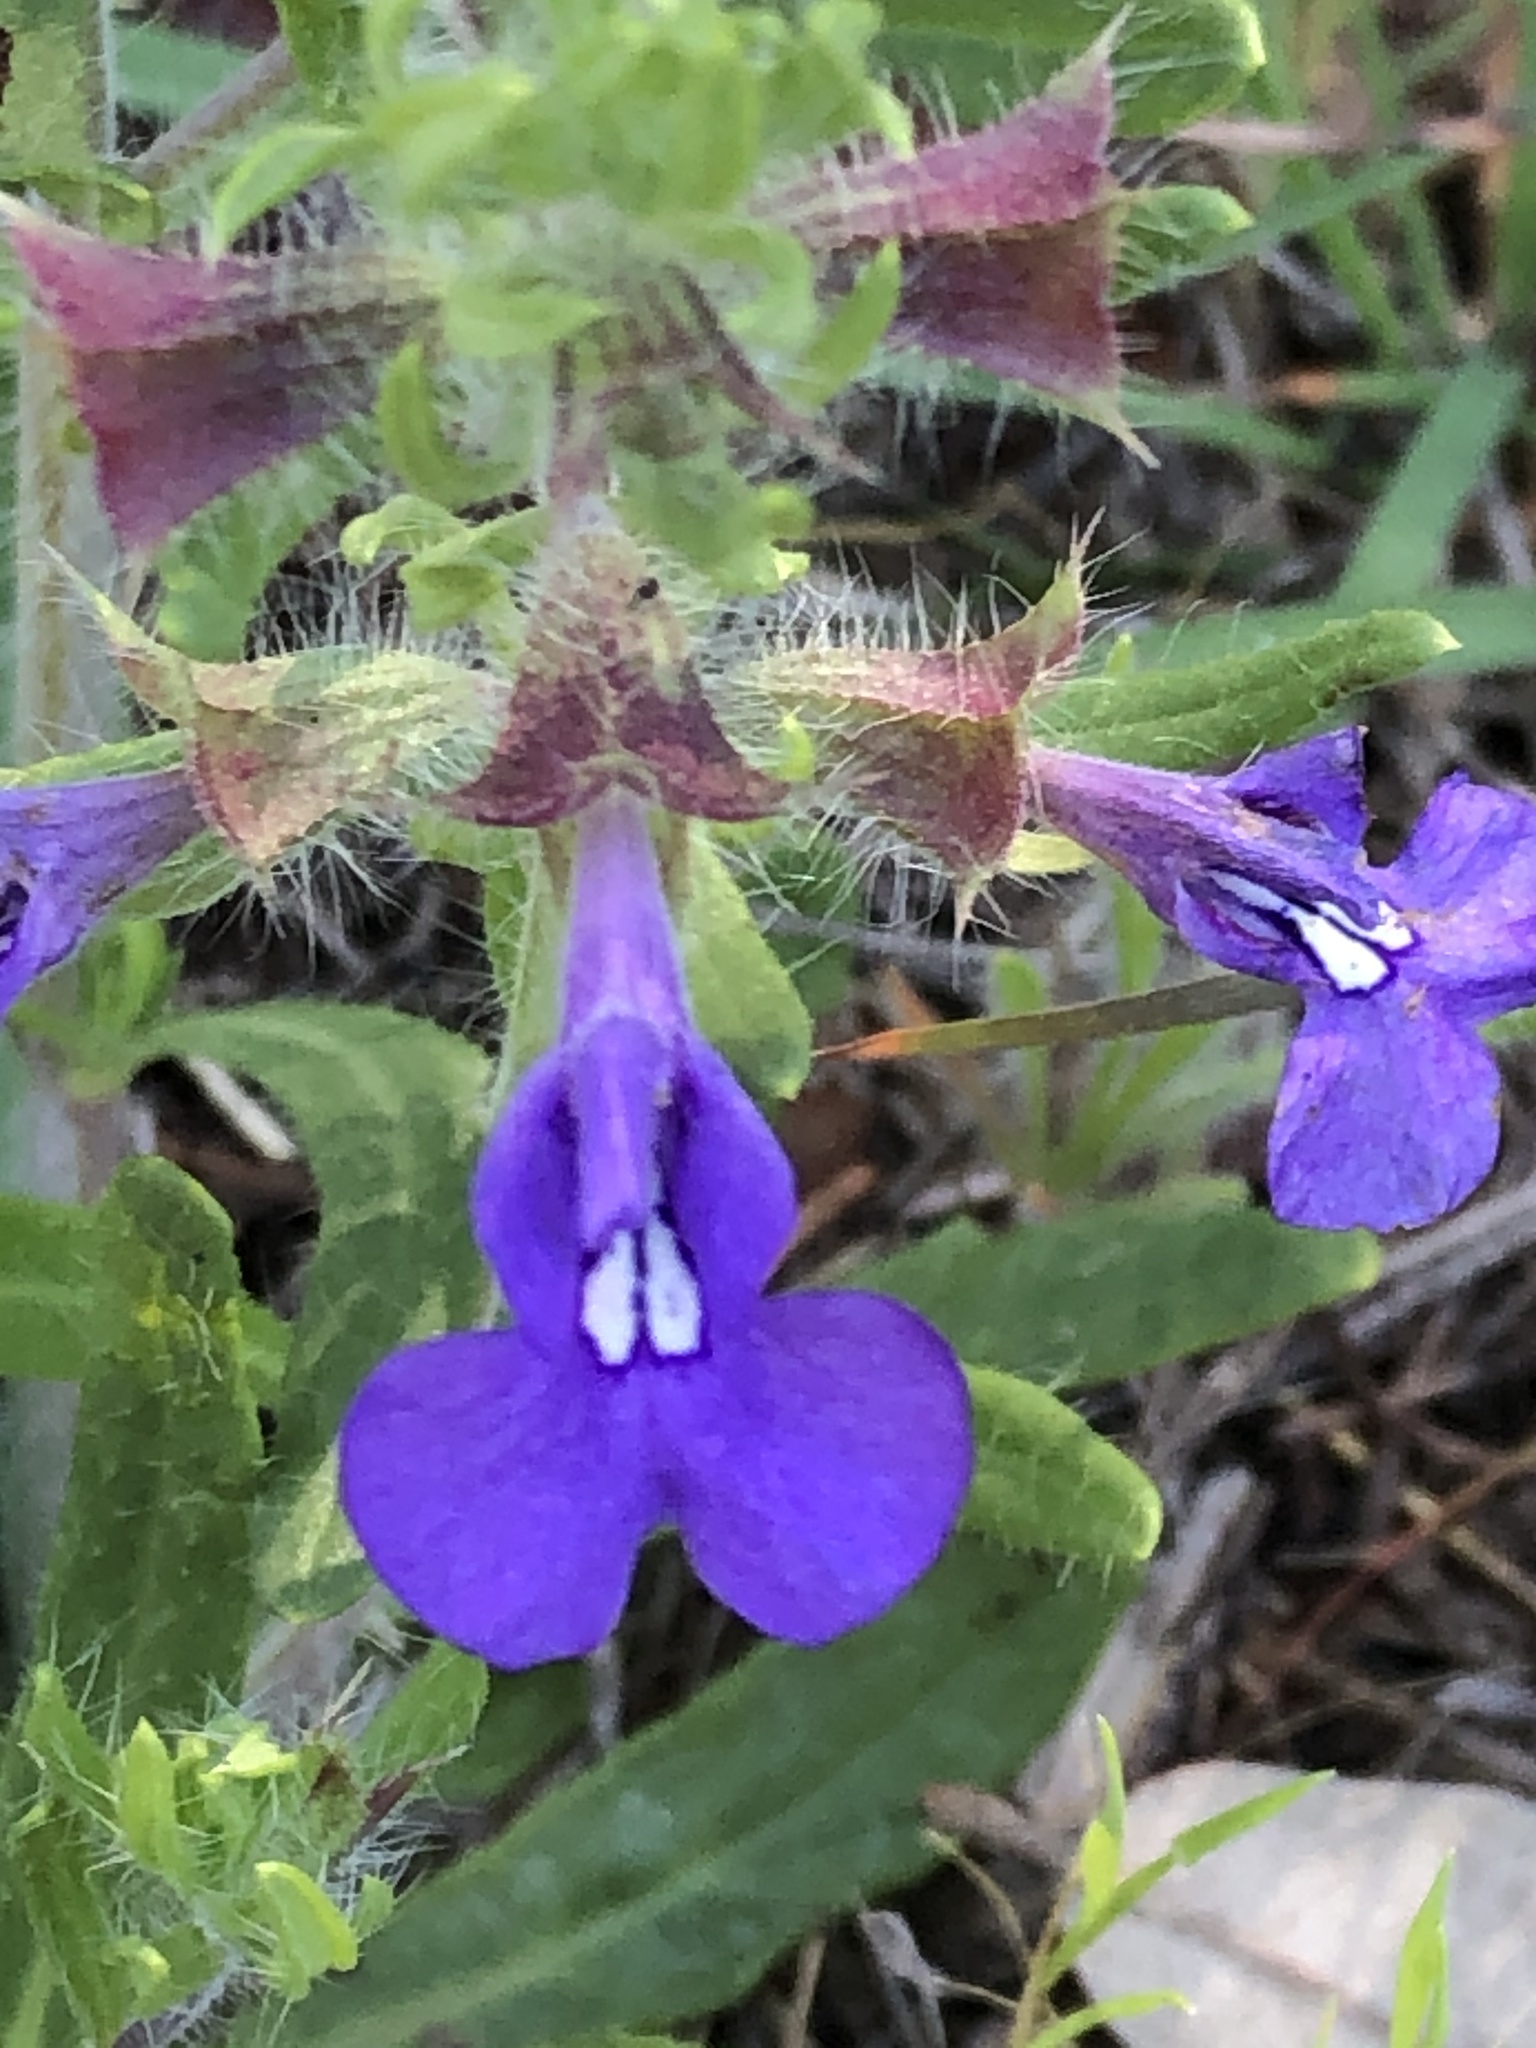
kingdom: Plantae
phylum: Tracheophyta
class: Magnoliopsida
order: Lamiales
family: Lamiaceae
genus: Salvia
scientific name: Salvia texana
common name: Texas sage
